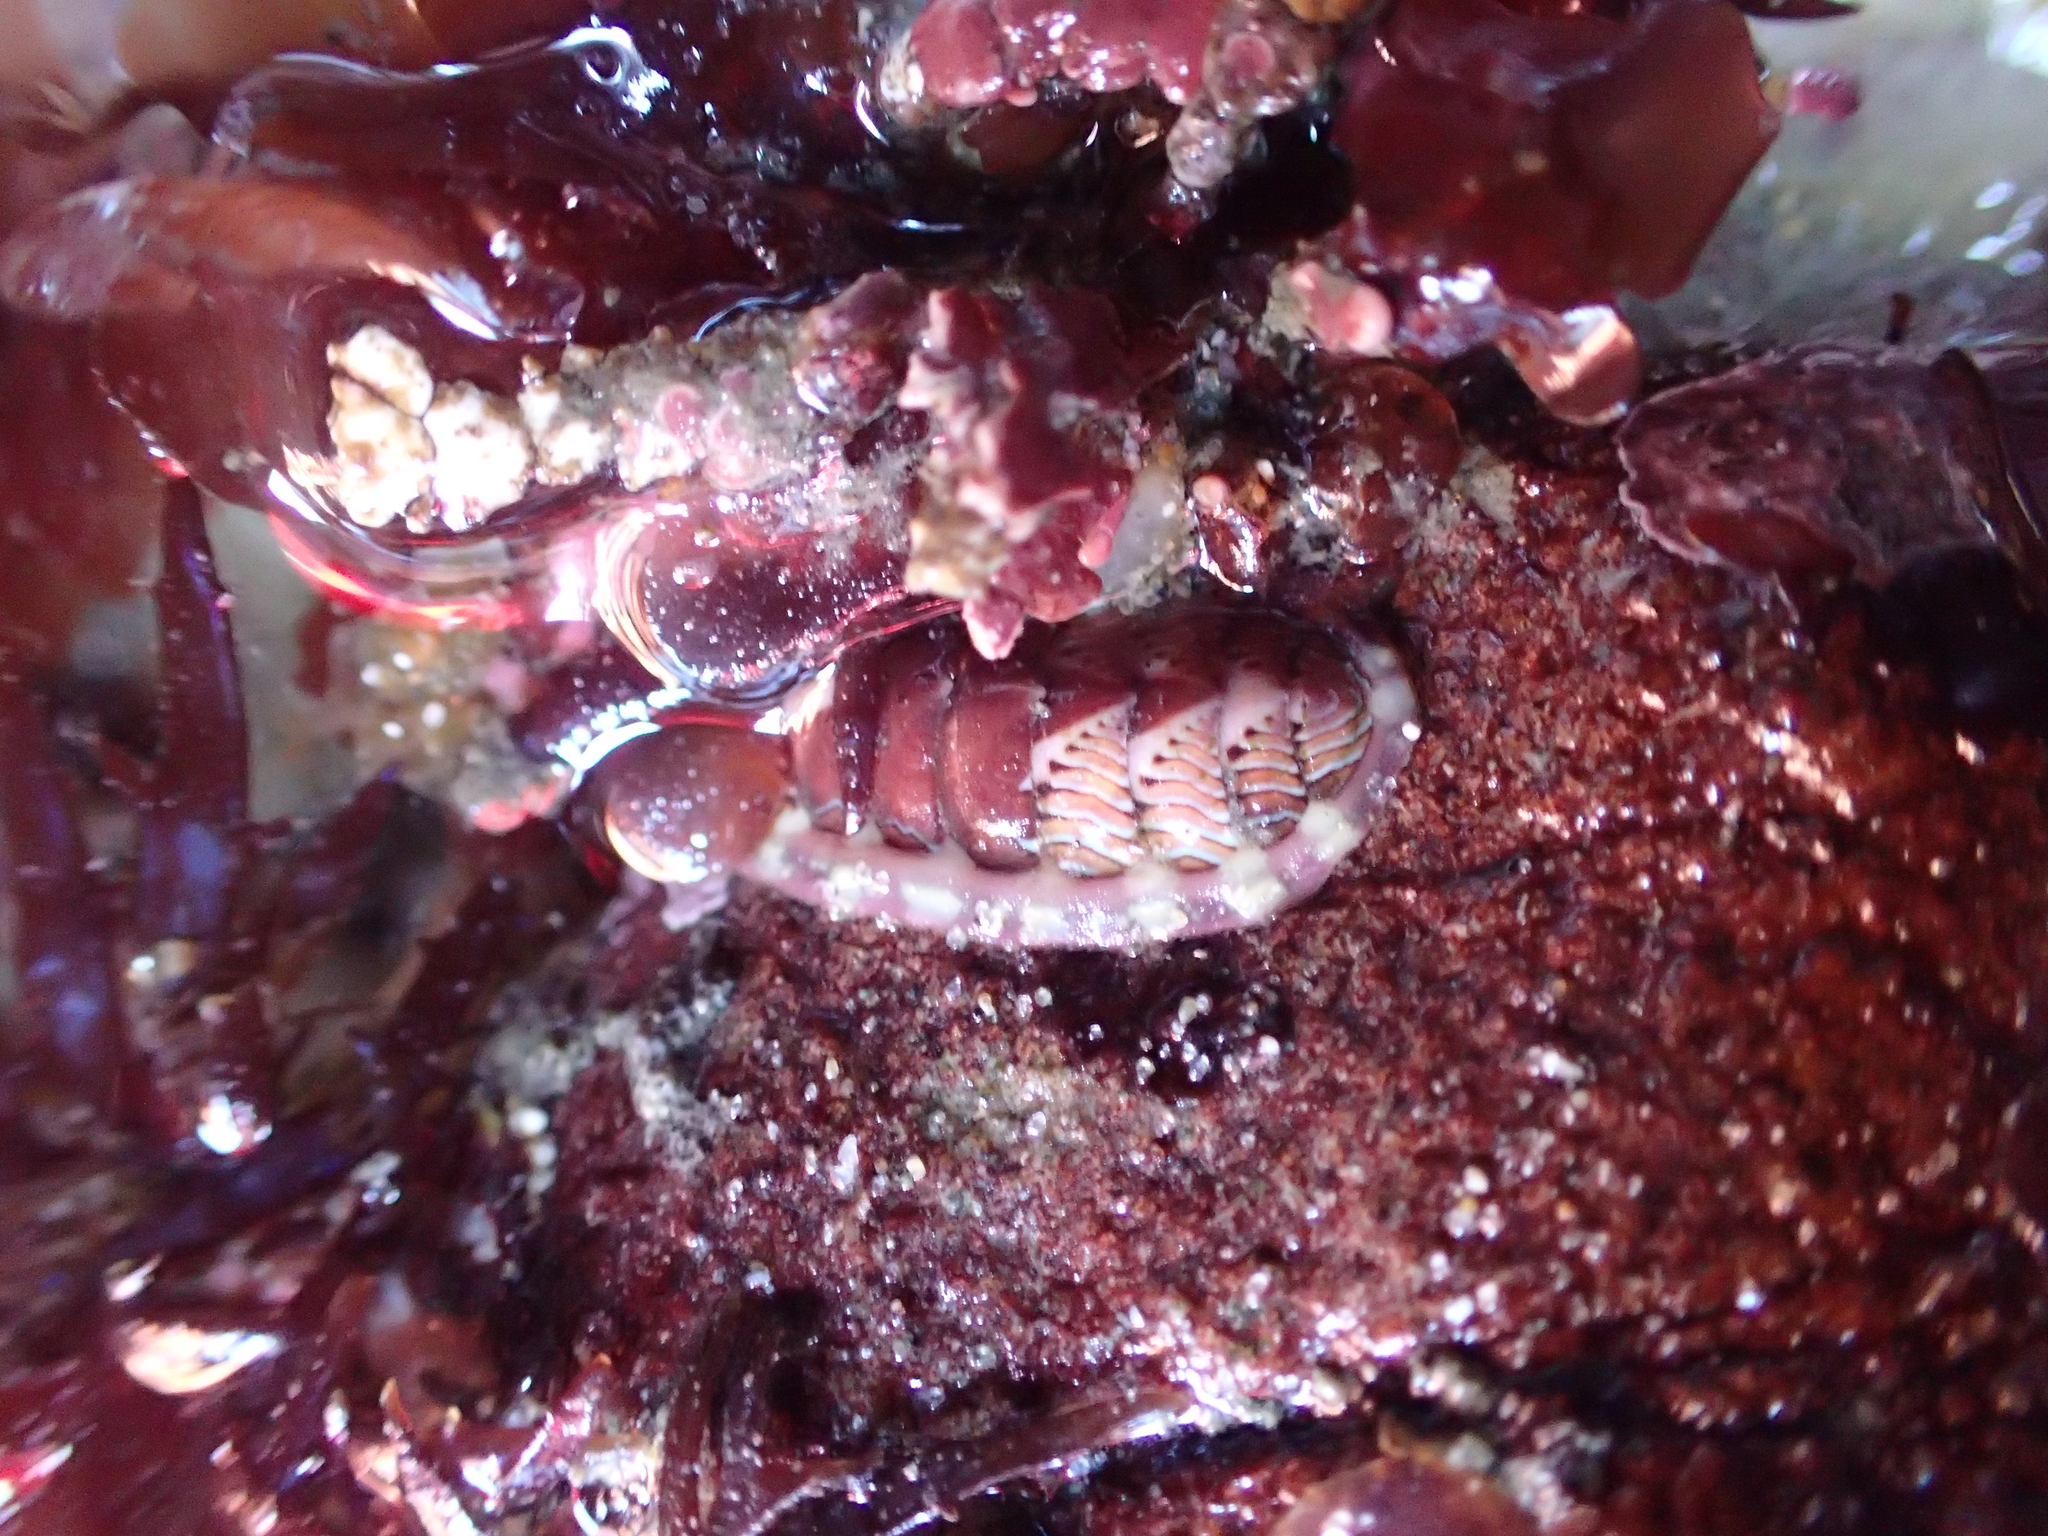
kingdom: Animalia
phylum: Mollusca
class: Polyplacophora
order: Chitonida
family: Tonicellidae
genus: Tonicella
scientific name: Tonicella lineata
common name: Lined chiton
